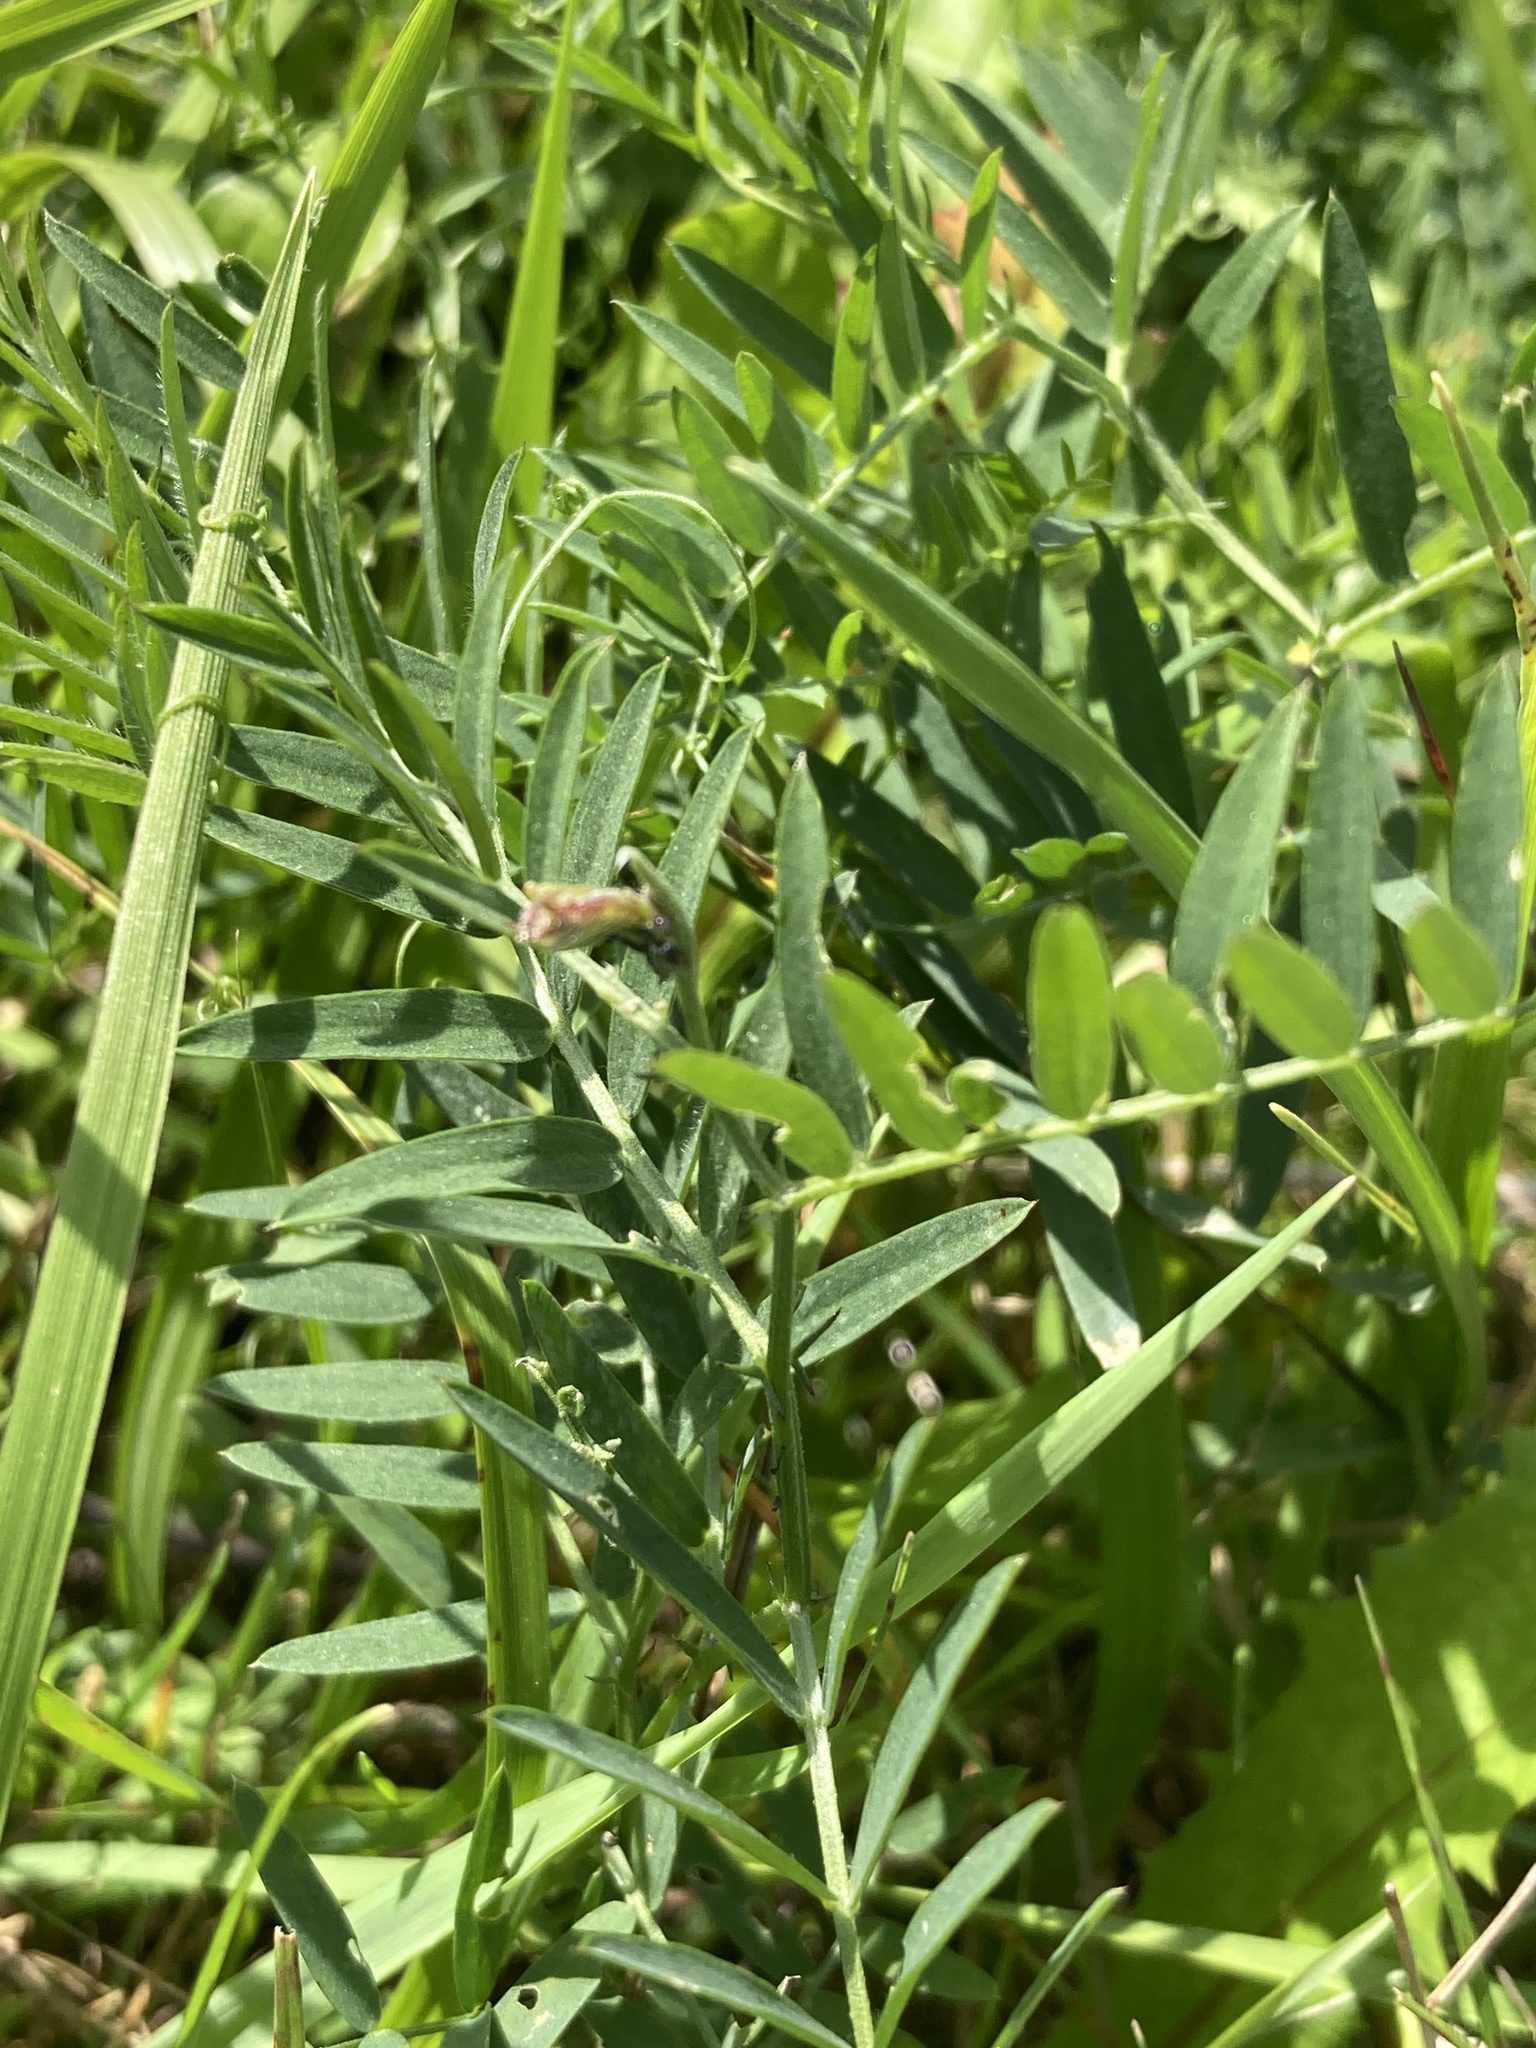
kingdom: Plantae
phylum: Tracheophyta
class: Magnoliopsida
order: Fabales
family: Fabaceae
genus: Vicia
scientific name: Vicia cracca
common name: Bird vetch
